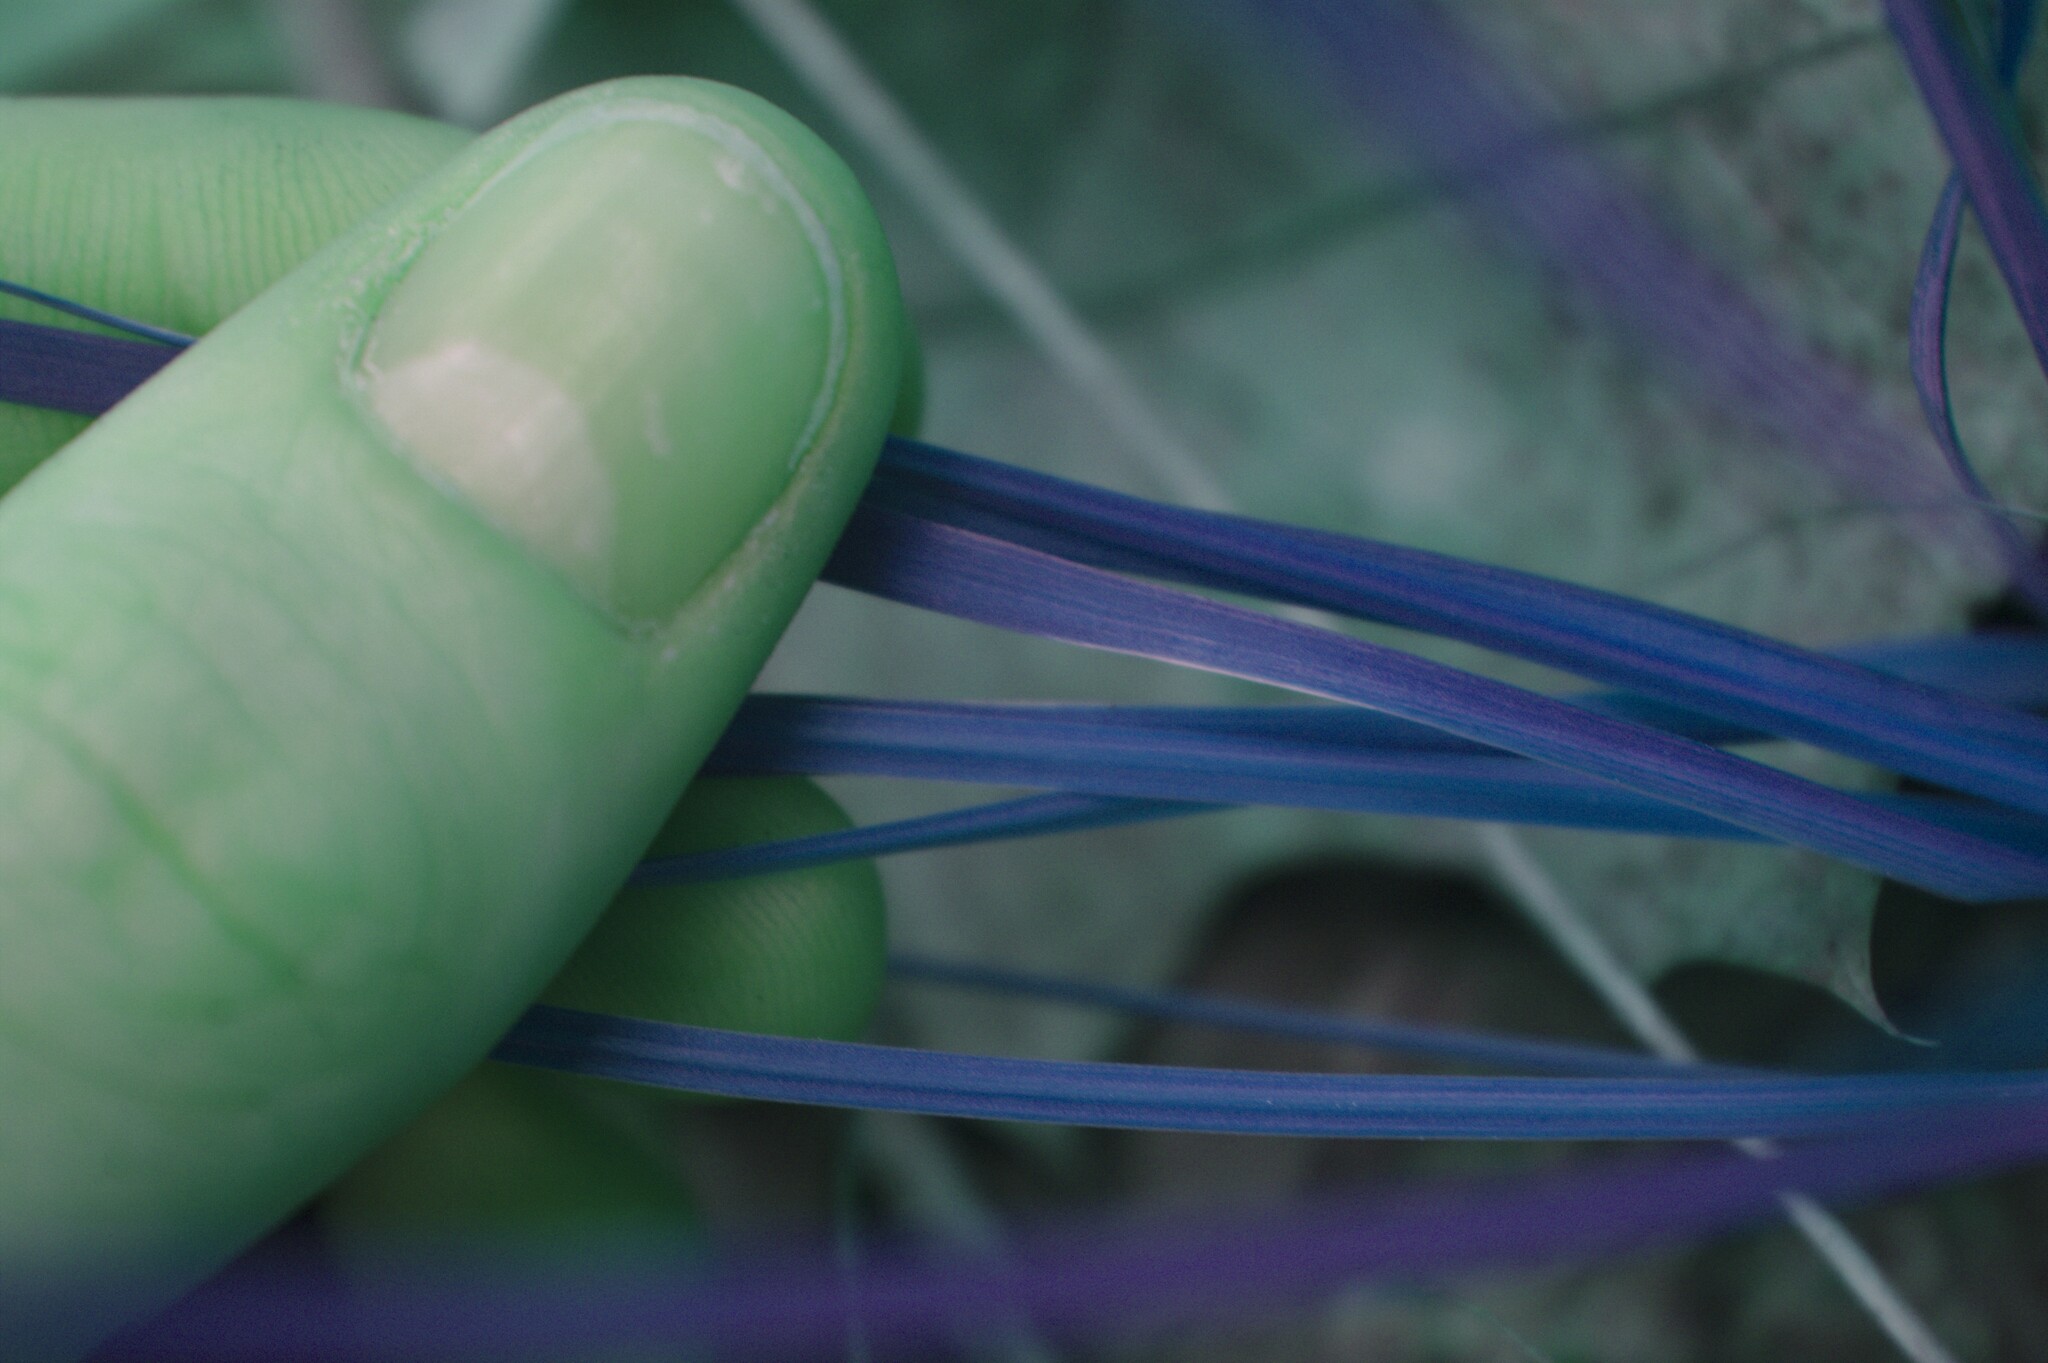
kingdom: Plantae
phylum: Tracheophyta
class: Liliopsida
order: Asparagales
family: Iridaceae
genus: Sisyrinchium
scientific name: Sisyrinchium montanum
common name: American blue-eyed-grass
